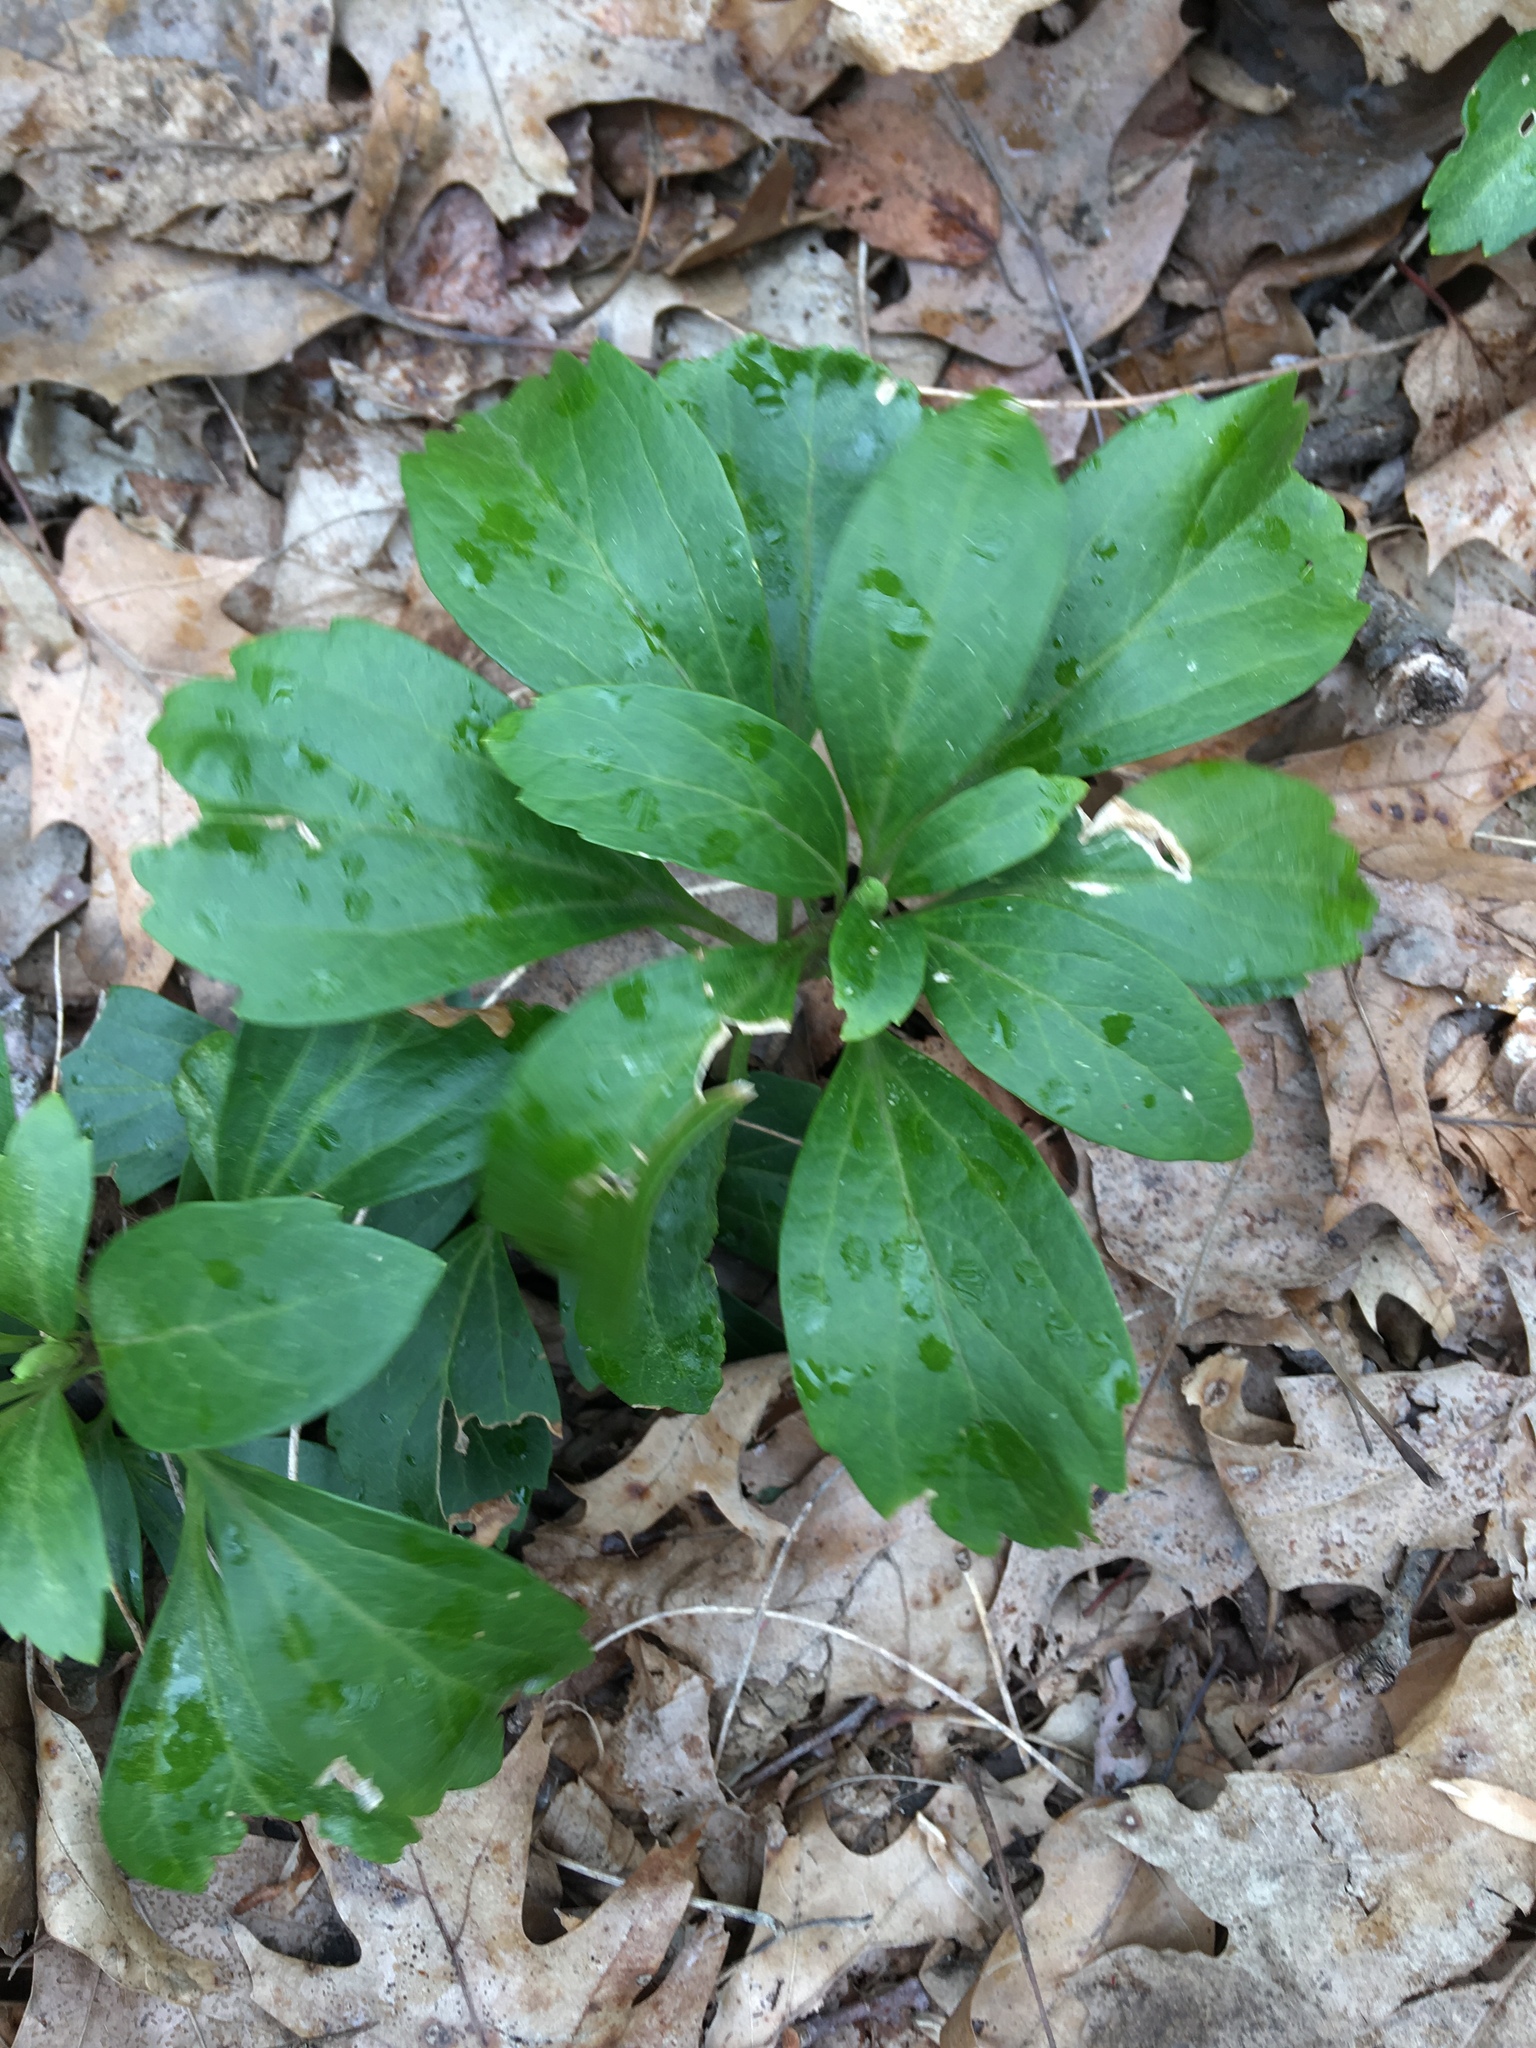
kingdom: Plantae
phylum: Tracheophyta
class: Magnoliopsida
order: Buxales
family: Buxaceae
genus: Pachysandra
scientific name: Pachysandra terminalis
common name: Japanese pachysandra
